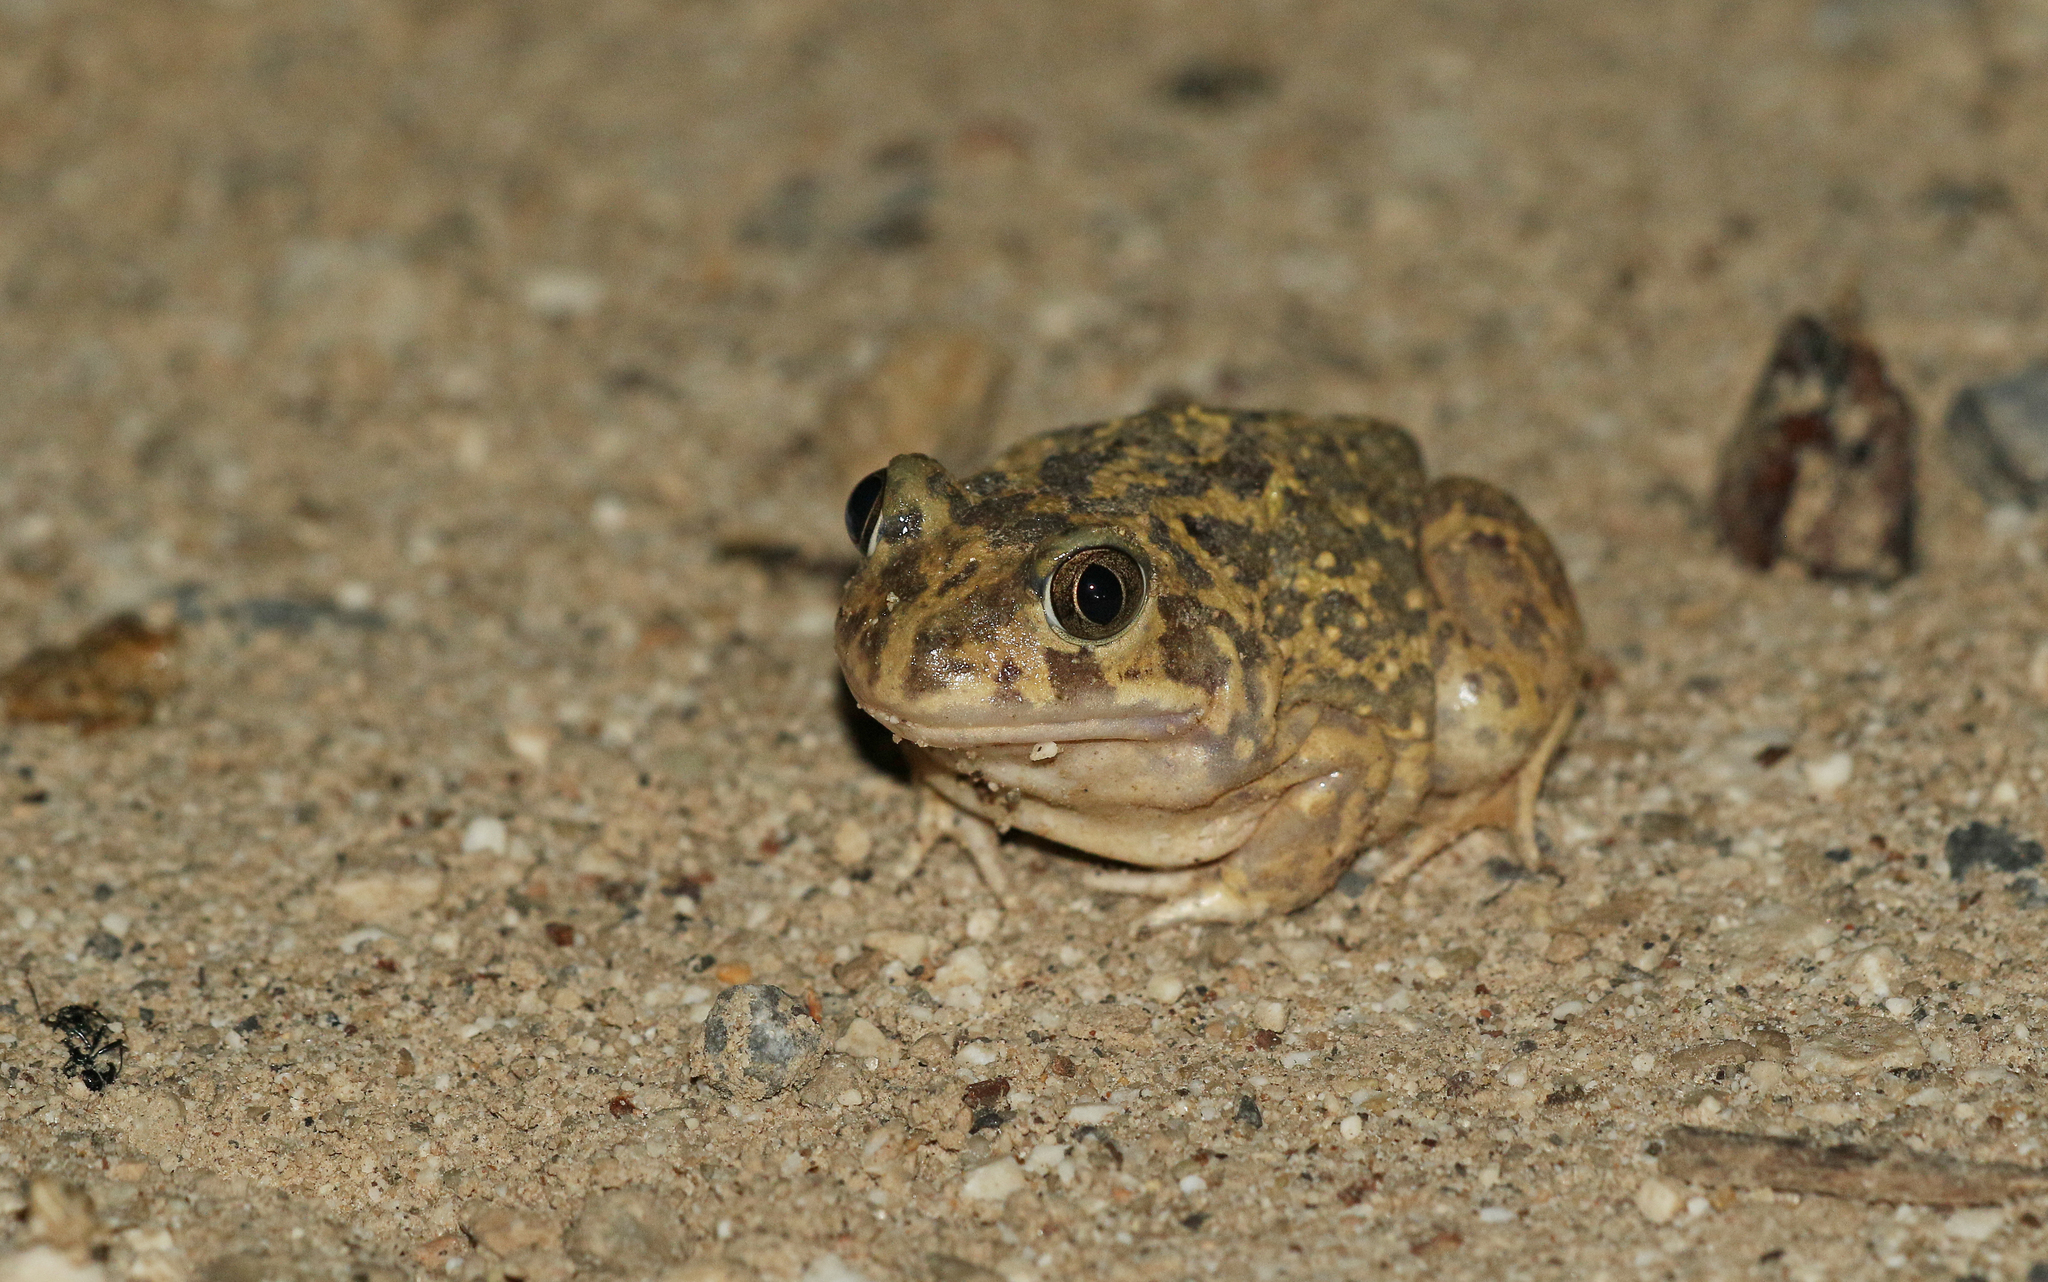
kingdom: Animalia
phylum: Chordata
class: Amphibia
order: Anura
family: Pelobatidae
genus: Pelobates
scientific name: Pelobates cultripes
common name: Western spadefoot
